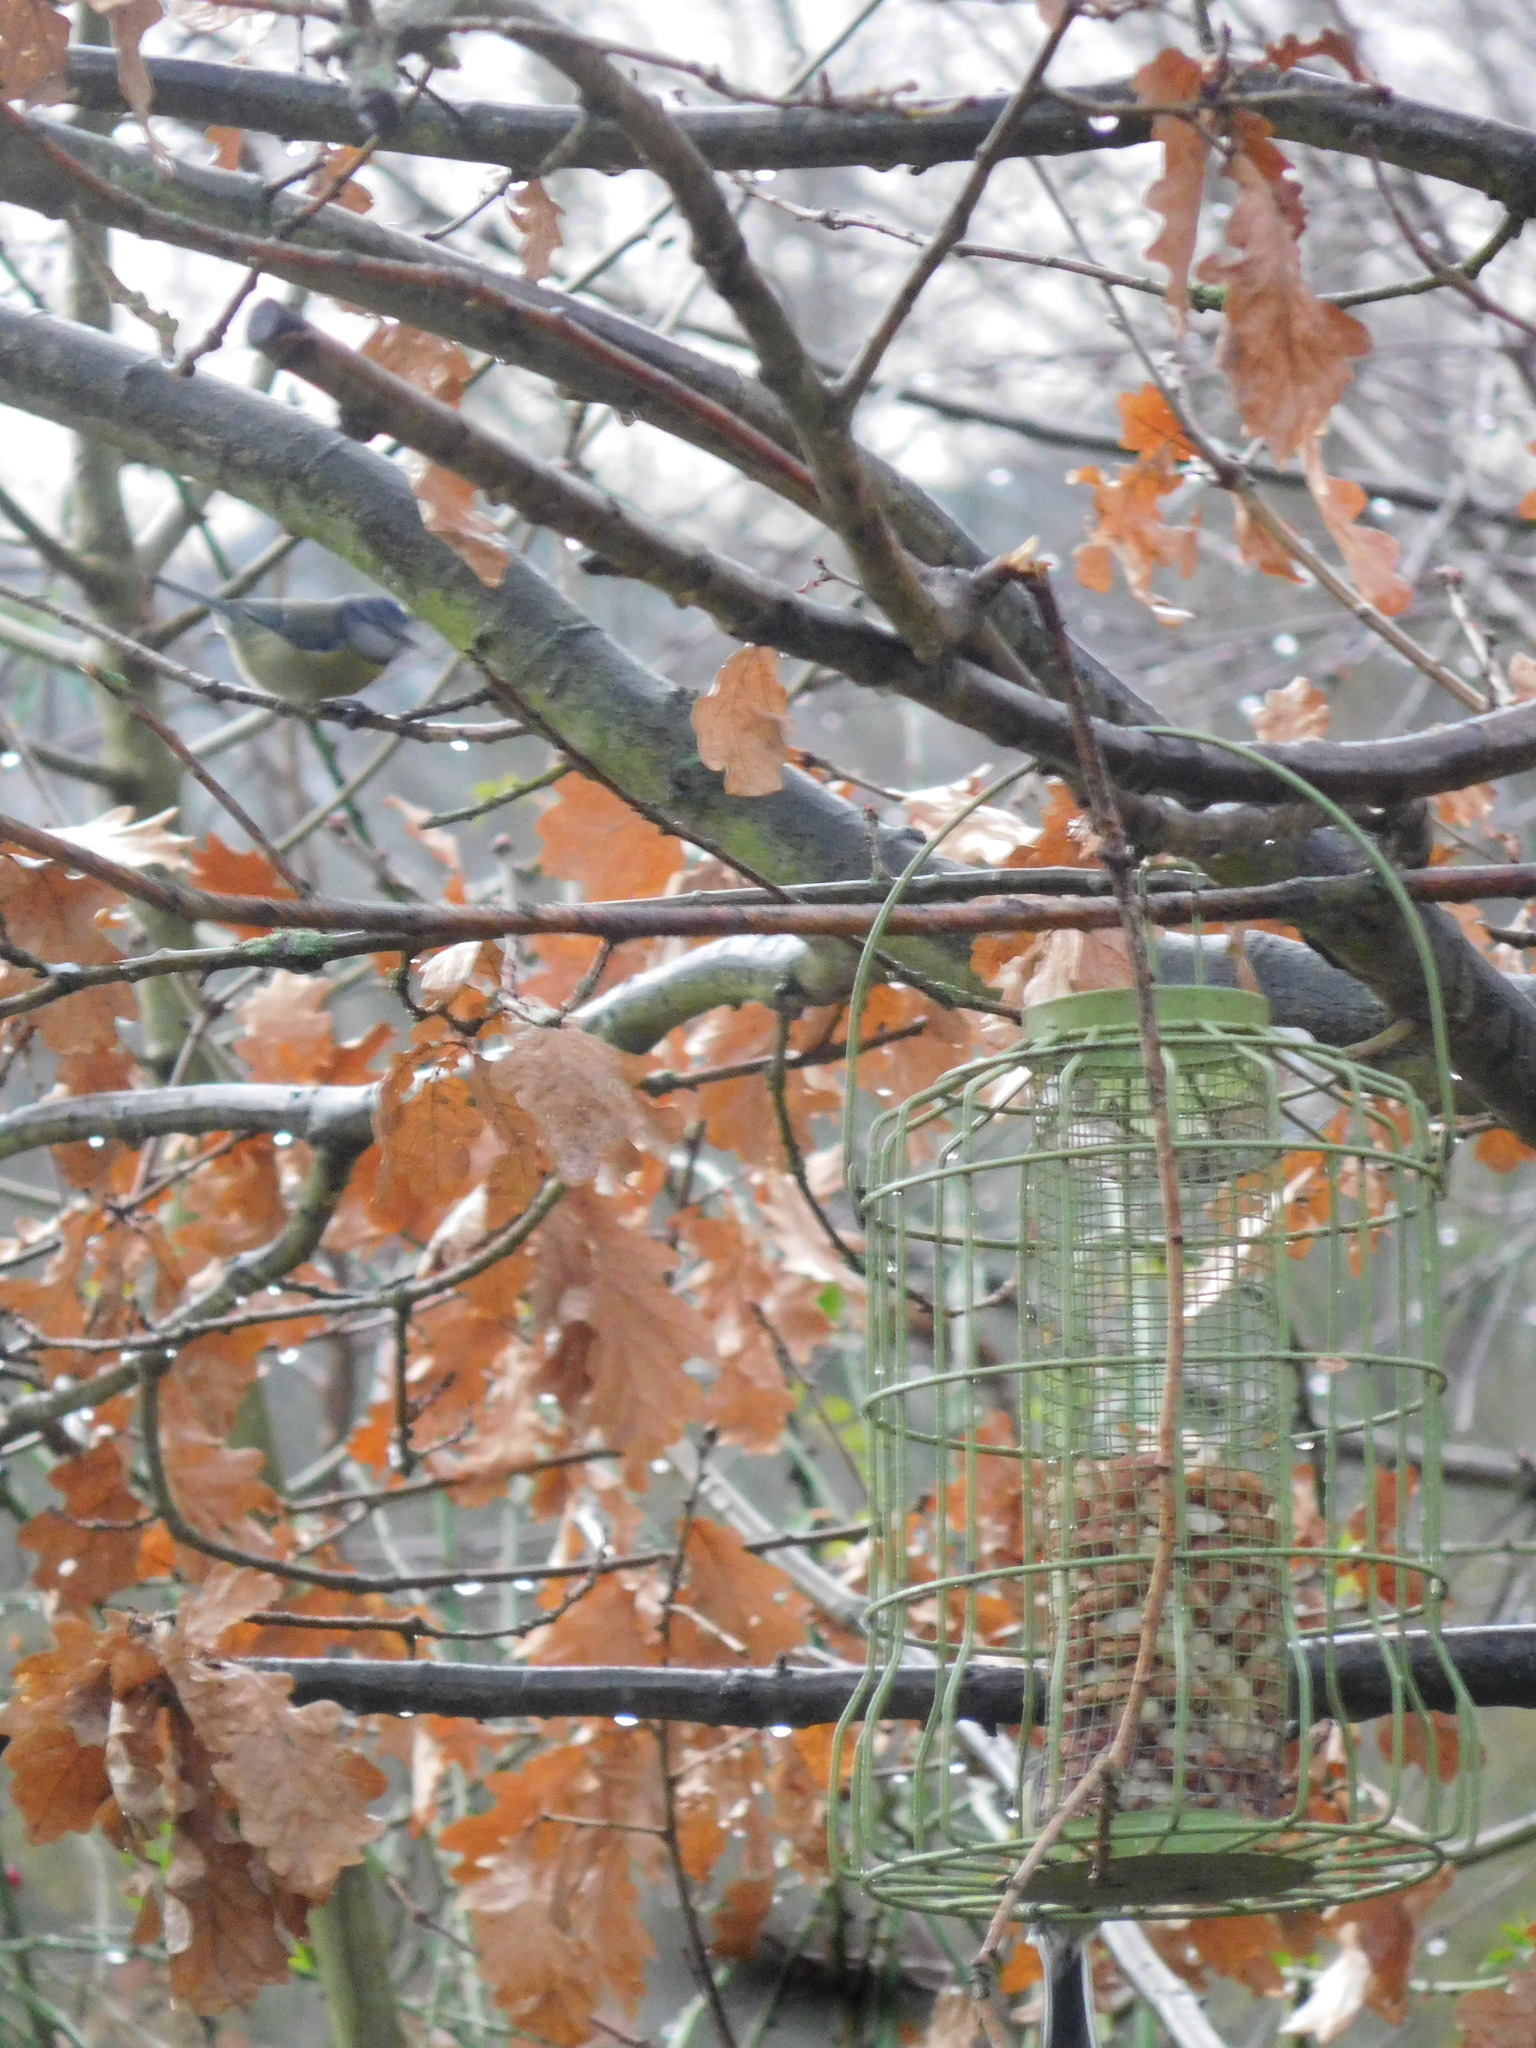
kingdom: Animalia
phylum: Chordata
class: Aves
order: Passeriformes
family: Paridae
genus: Cyanistes
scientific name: Cyanistes caeruleus
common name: Eurasian blue tit
